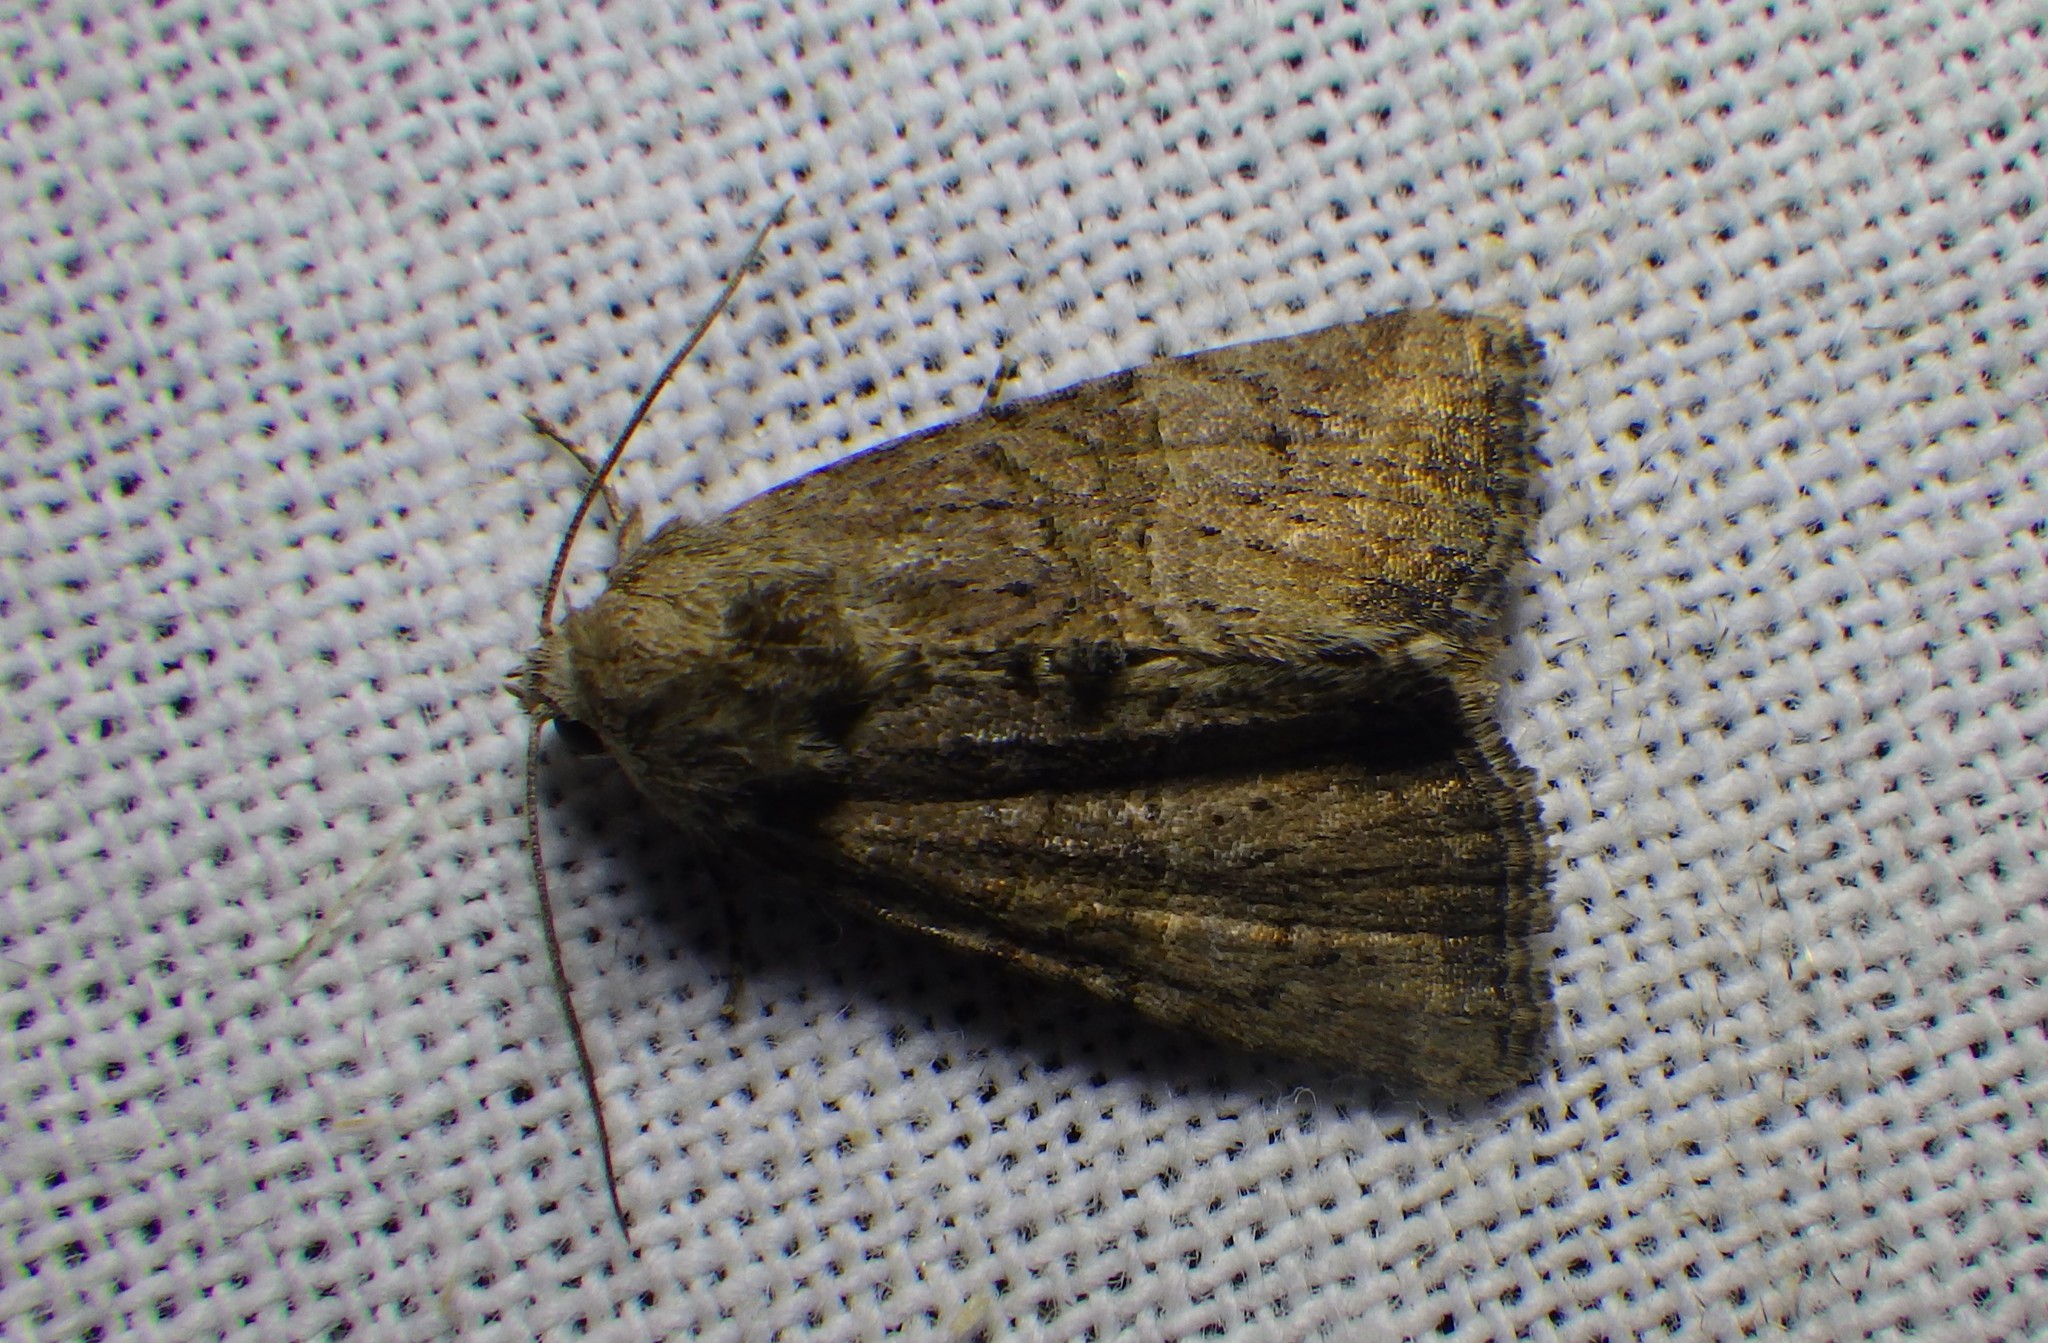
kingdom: Animalia
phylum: Arthropoda
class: Insecta
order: Lepidoptera
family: Noctuidae
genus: Mesoligia
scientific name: Mesoligia furuncula
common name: Cloaked minor
